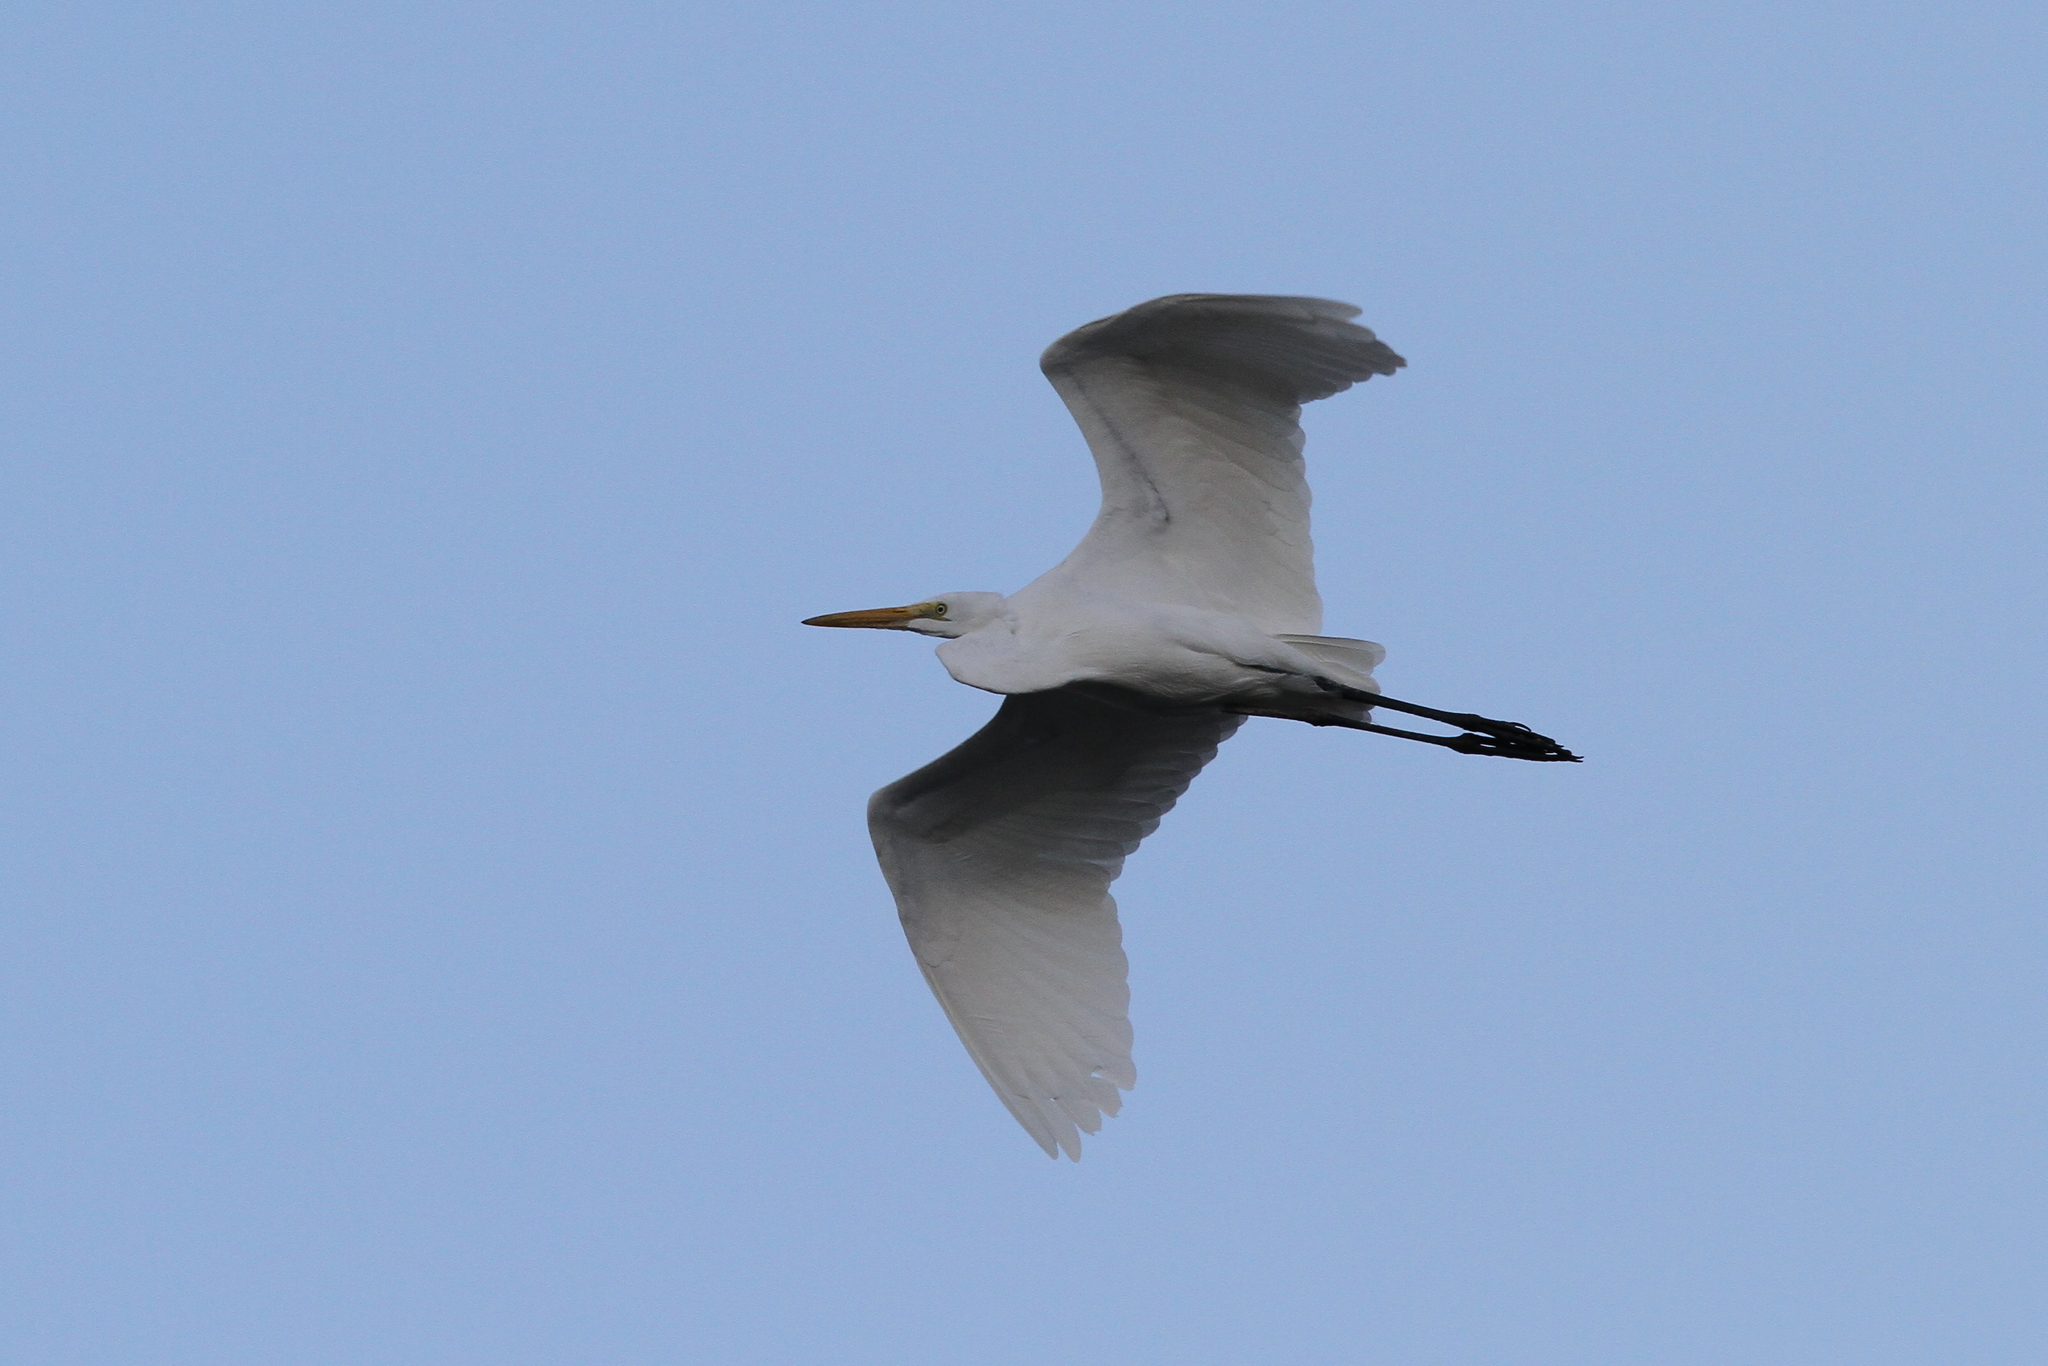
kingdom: Animalia
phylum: Chordata
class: Aves
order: Pelecaniformes
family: Ardeidae
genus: Ardea
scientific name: Ardea alba
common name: Great egret
